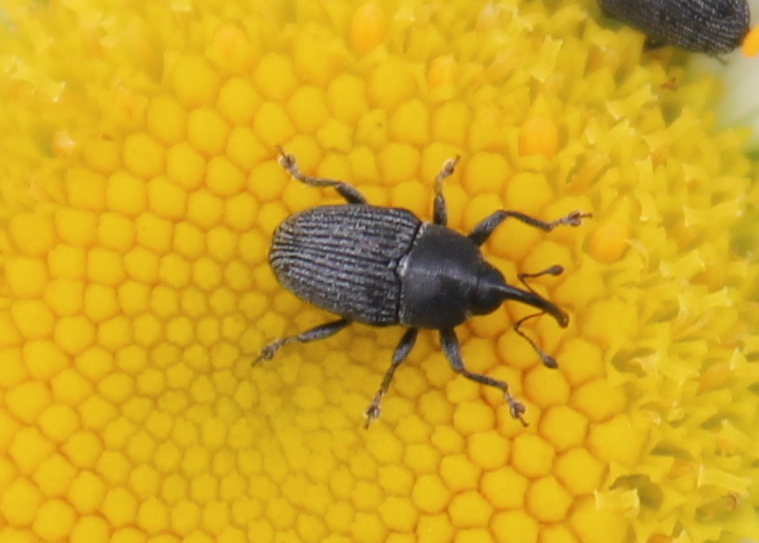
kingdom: Animalia
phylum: Arthropoda
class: Insecta
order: Coleoptera
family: Curculionidae
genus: Odontocorynus
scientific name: Odontocorynus salebrosus
